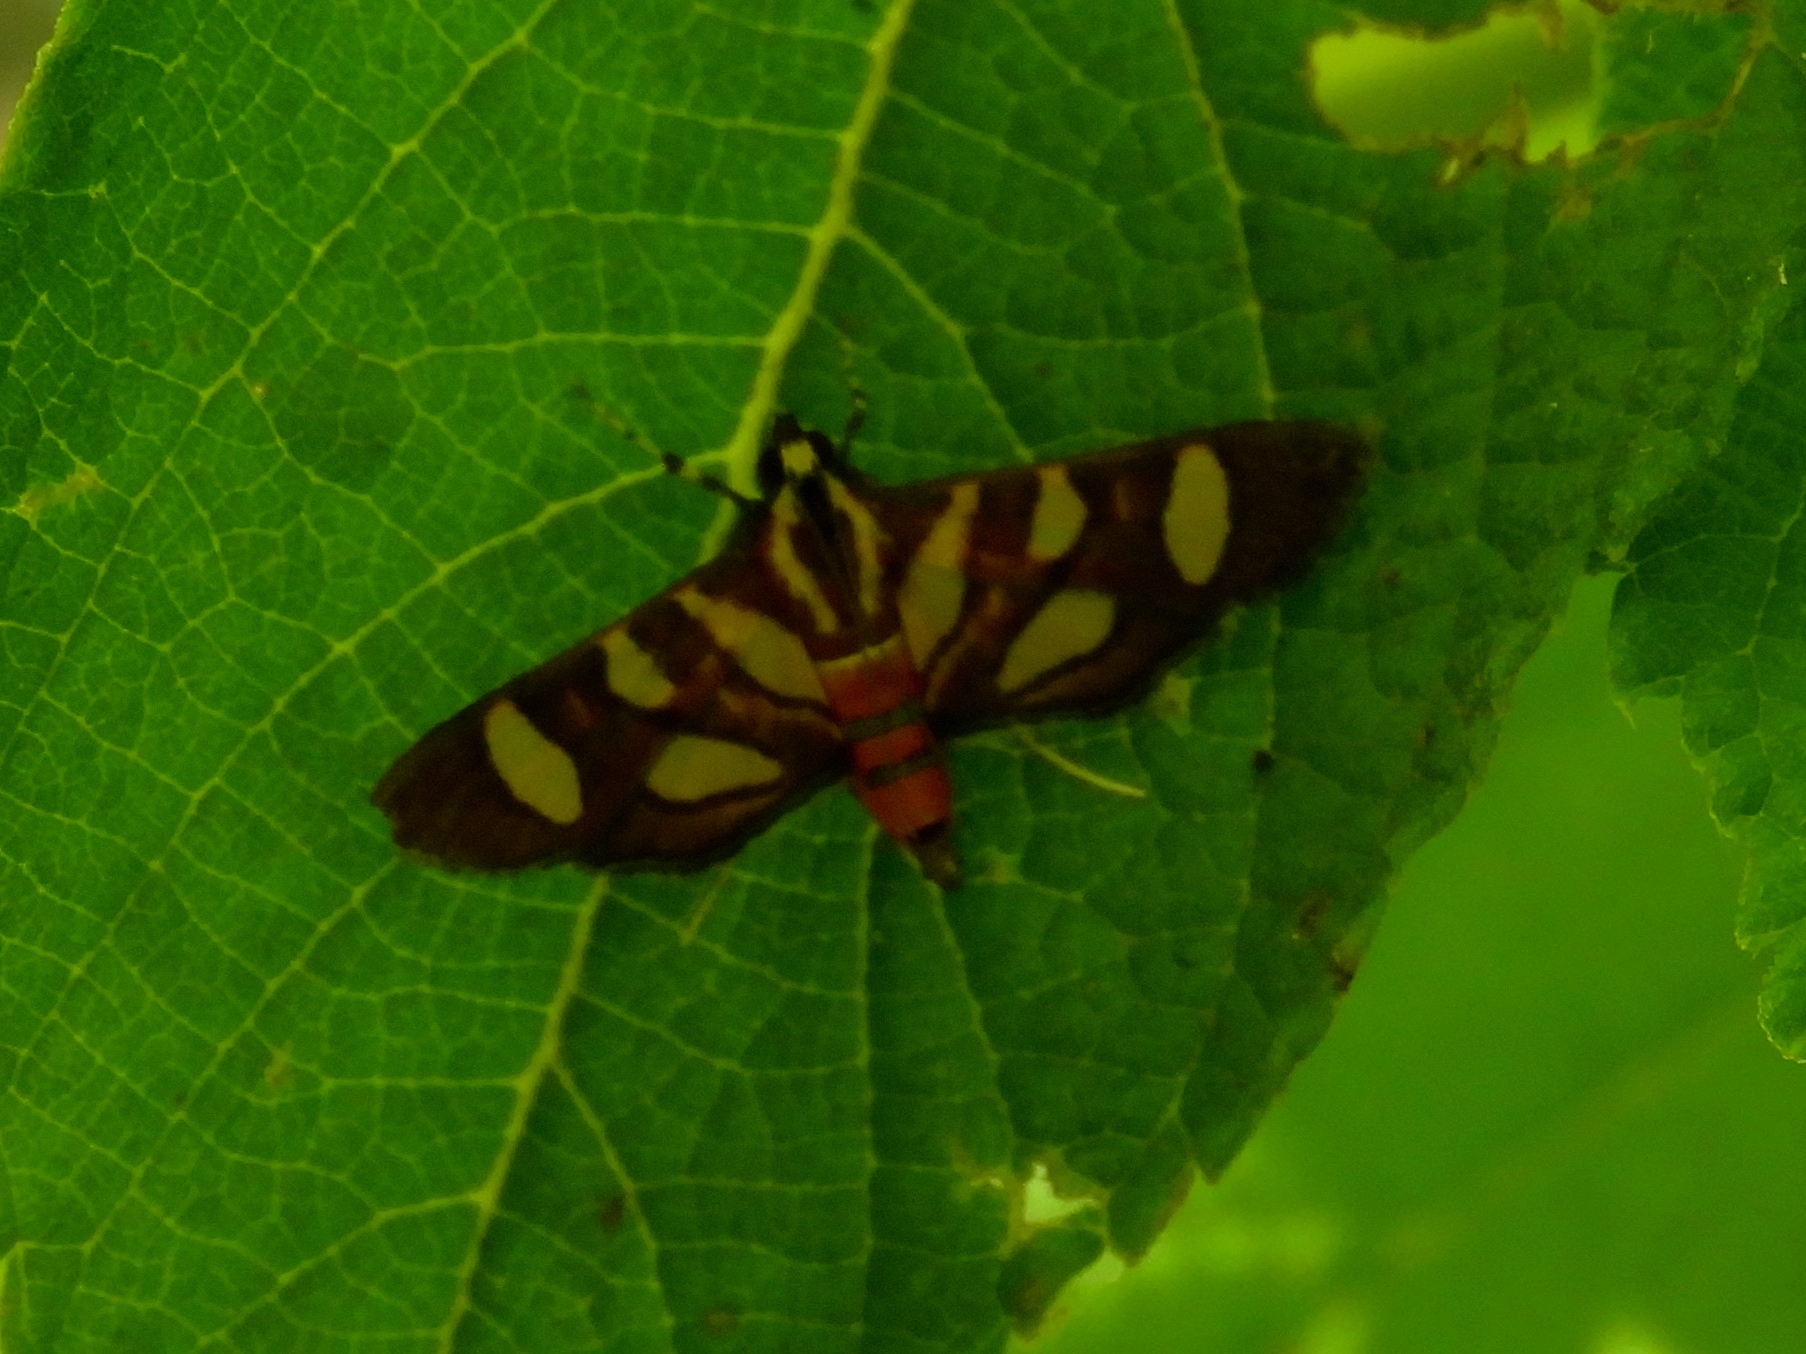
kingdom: Animalia
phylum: Arthropoda
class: Insecta
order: Lepidoptera
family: Crambidae
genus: Syngamia
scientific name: Syngamia florella
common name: Orange-spotted flower moth
